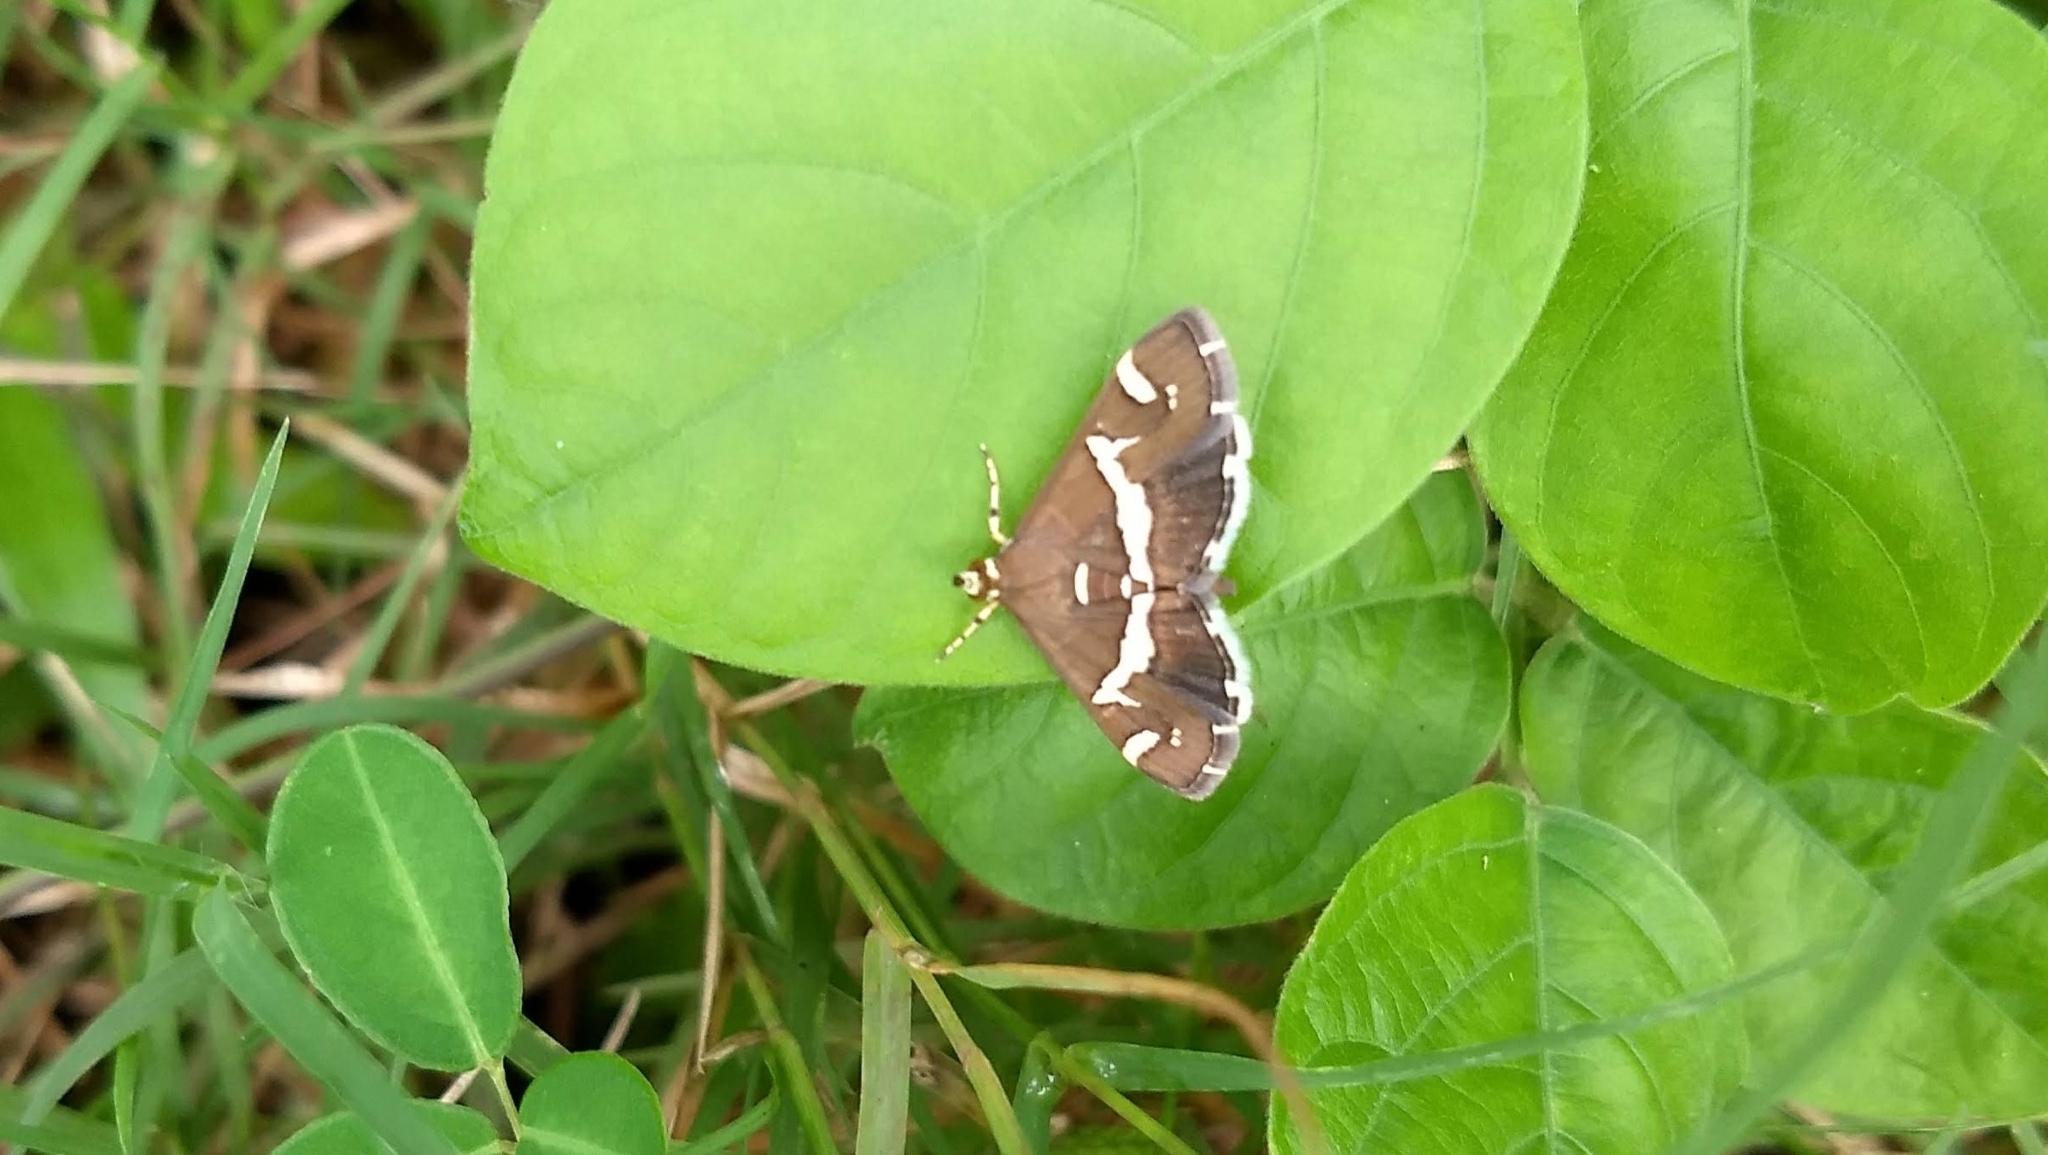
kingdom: Animalia
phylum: Arthropoda
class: Insecta
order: Lepidoptera
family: Crambidae
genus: Spoladea
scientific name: Spoladea recurvalis
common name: Beet webworm moth
